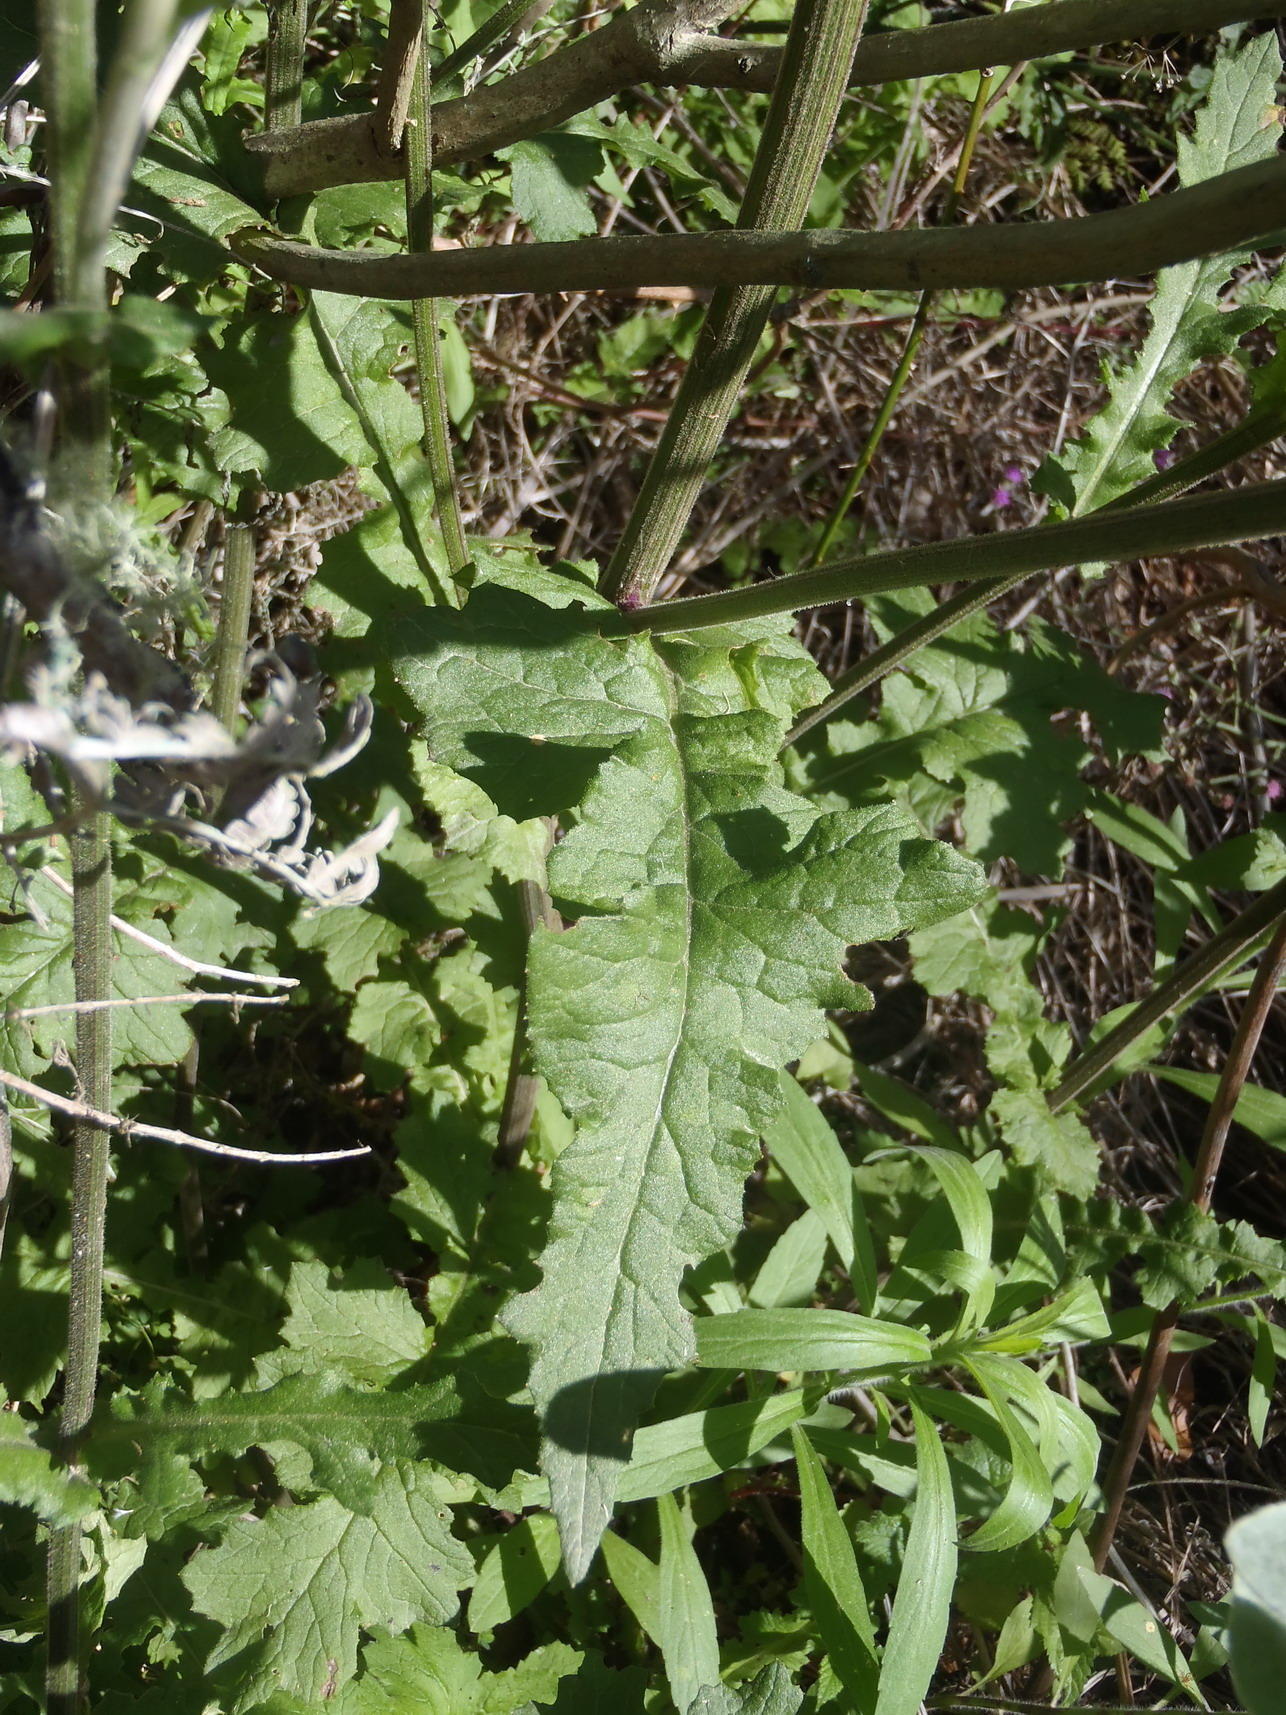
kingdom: Plantae
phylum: Tracheophyta
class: Magnoliopsida
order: Asterales
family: Asteraceae
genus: Senecio
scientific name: Senecio purpureus
